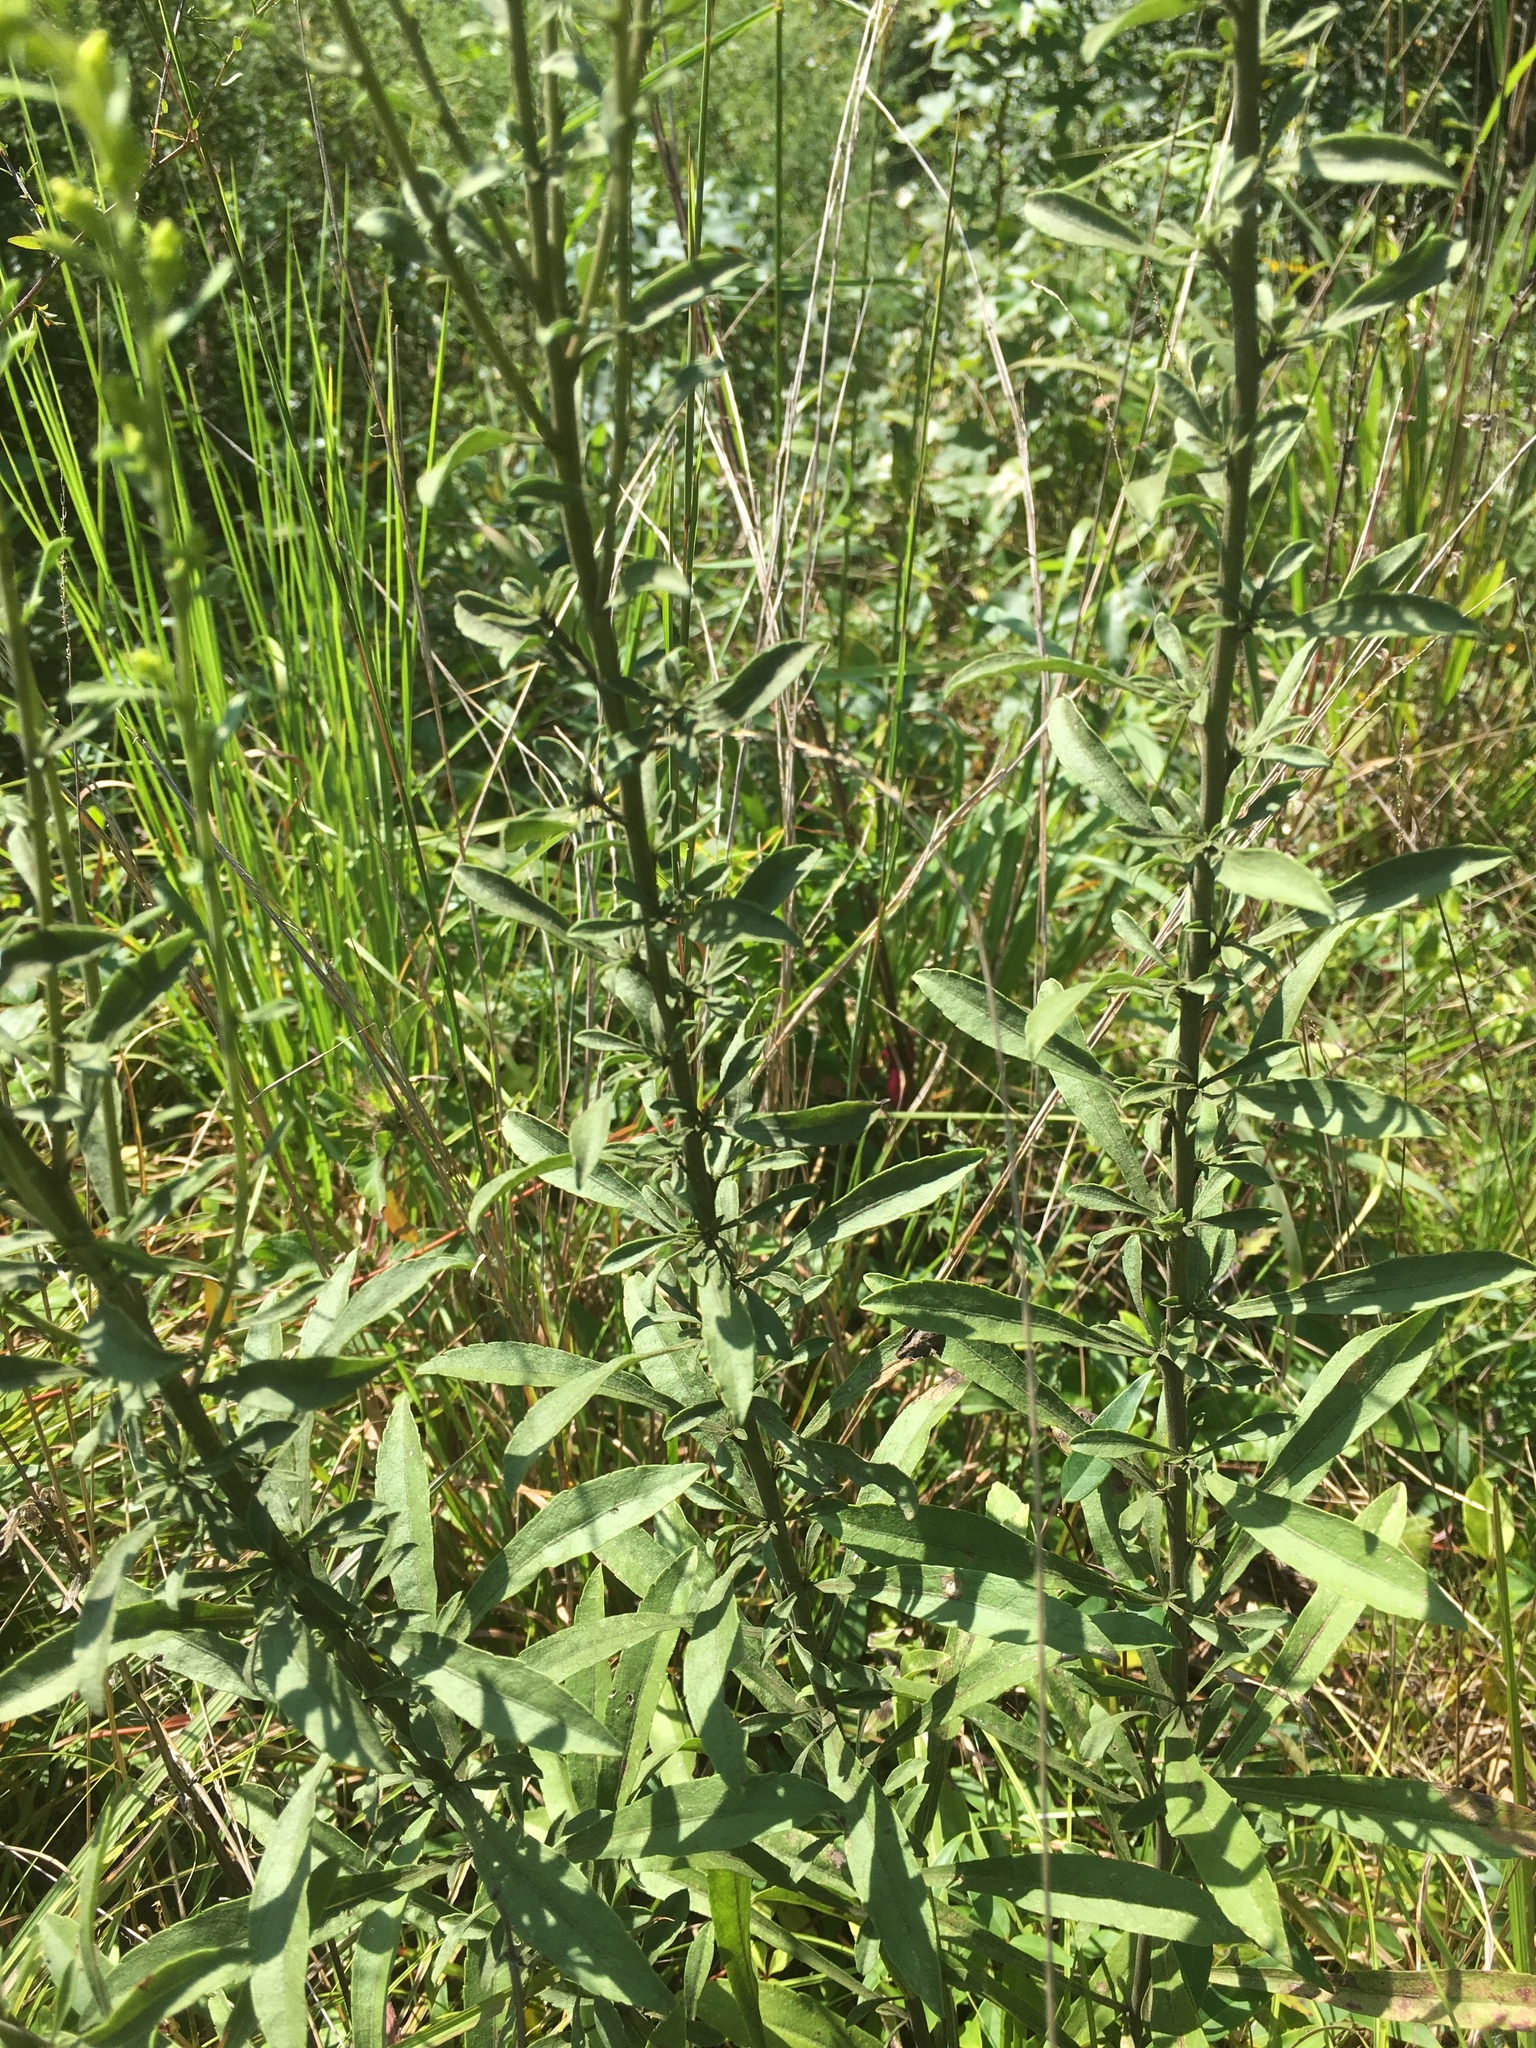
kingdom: Plantae
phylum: Tracheophyta
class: Magnoliopsida
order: Asterales
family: Asteraceae
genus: Solidago
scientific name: Solidago nemoralis
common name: Grey goldenrod
